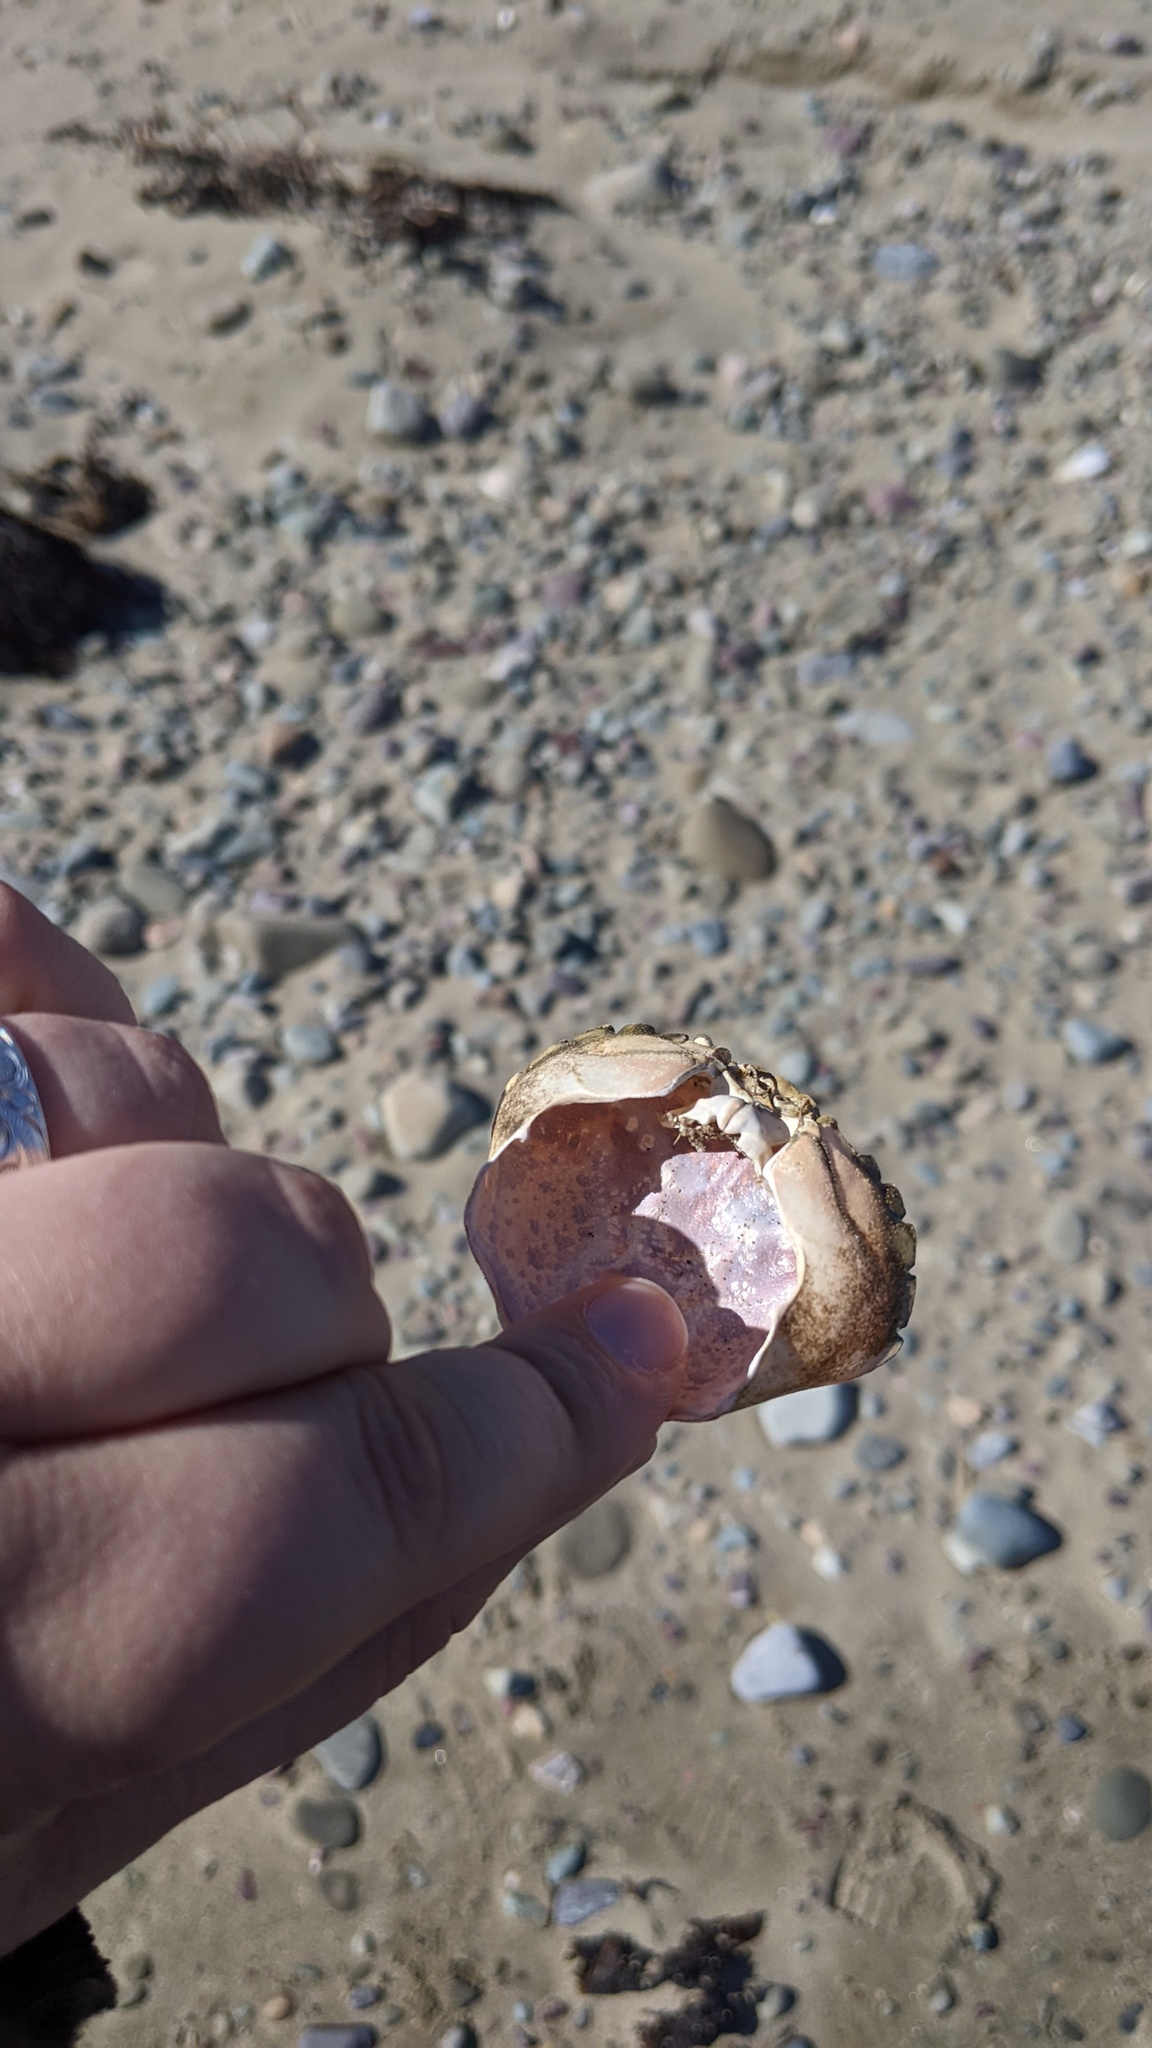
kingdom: Animalia
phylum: Arthropoda
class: Malacostraca
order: Decapoda
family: Carcinidae
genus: Carcinus
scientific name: Carcinus maenas
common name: European green crab
